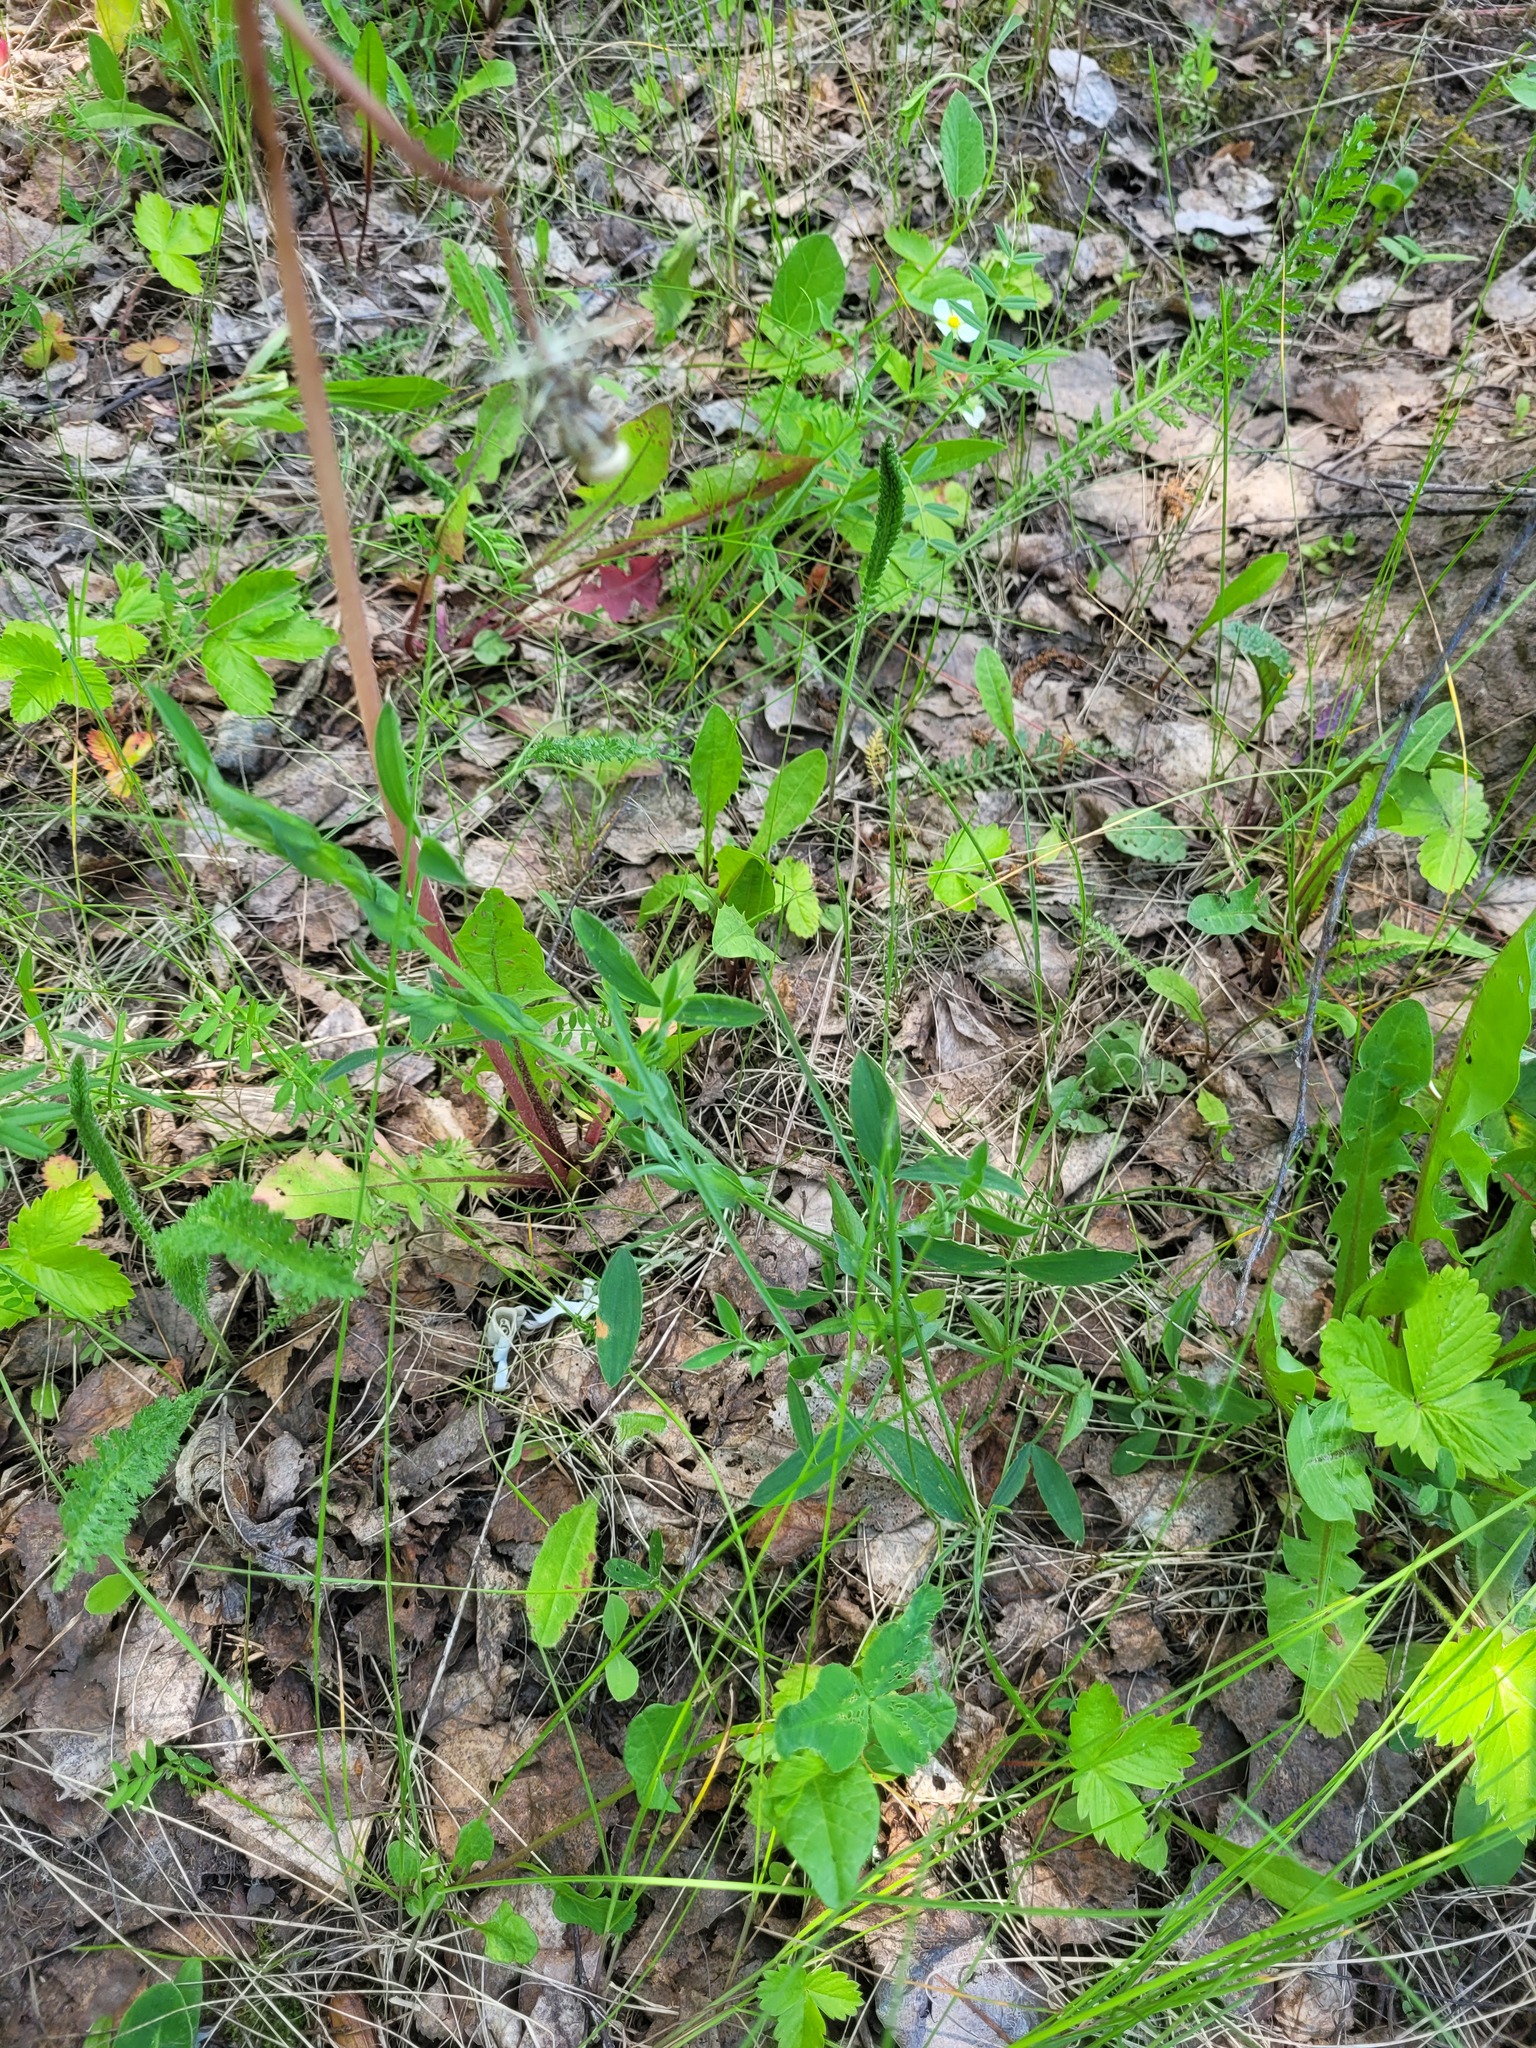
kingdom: Plantae
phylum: Tracheophyta
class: Magnoliopsida
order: Fabales
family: Fabaceae
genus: Lathyrus
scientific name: Lathyrus pratensis
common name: Meadow vetchling
